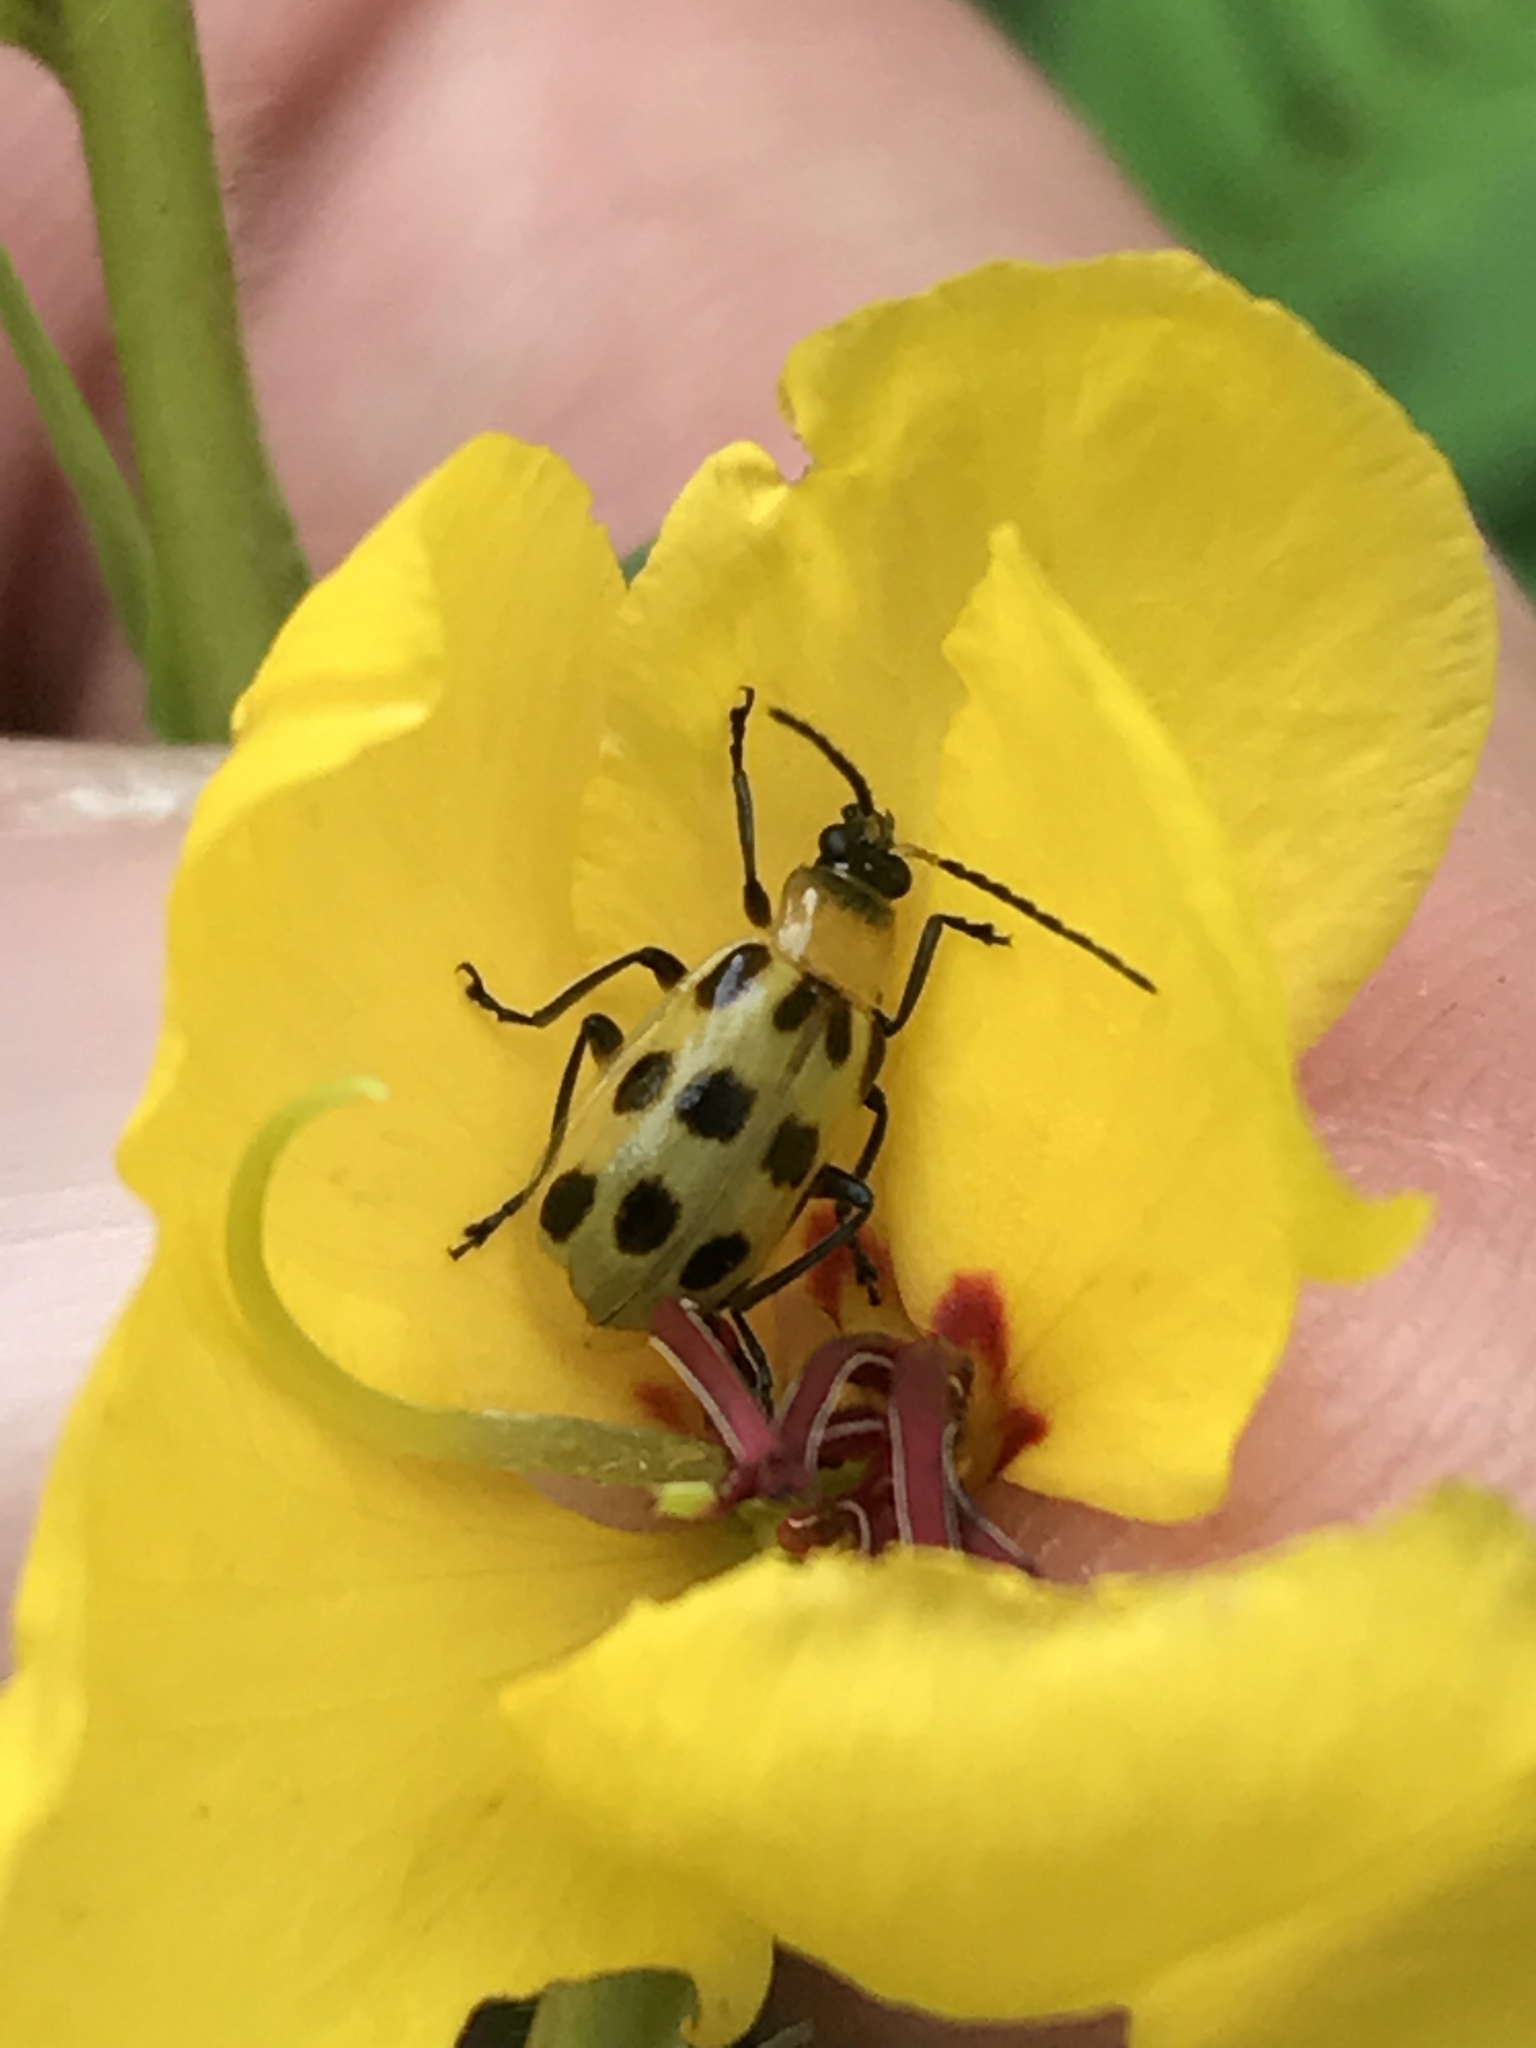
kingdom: Animalia
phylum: Arthropoda
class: Insecta
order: Coleoptera
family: Chrysomelidae
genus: Diabrotica
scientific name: Diabrotica undecimpunctata
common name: Spotted cucumber beetle
